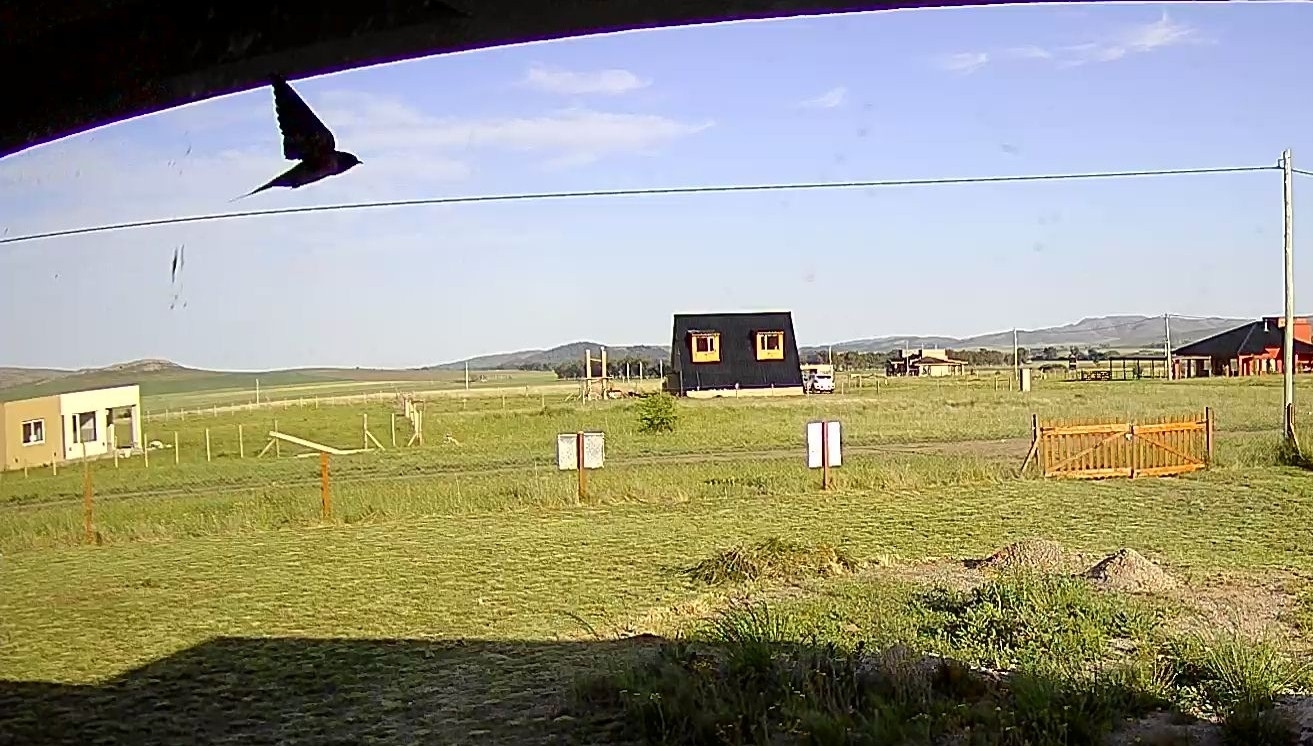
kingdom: Animalia
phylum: Chordata
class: Aves
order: Passeriformes
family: Hirundinidae
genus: Hirundo
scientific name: Hirundo rustica
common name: Barn swallow
